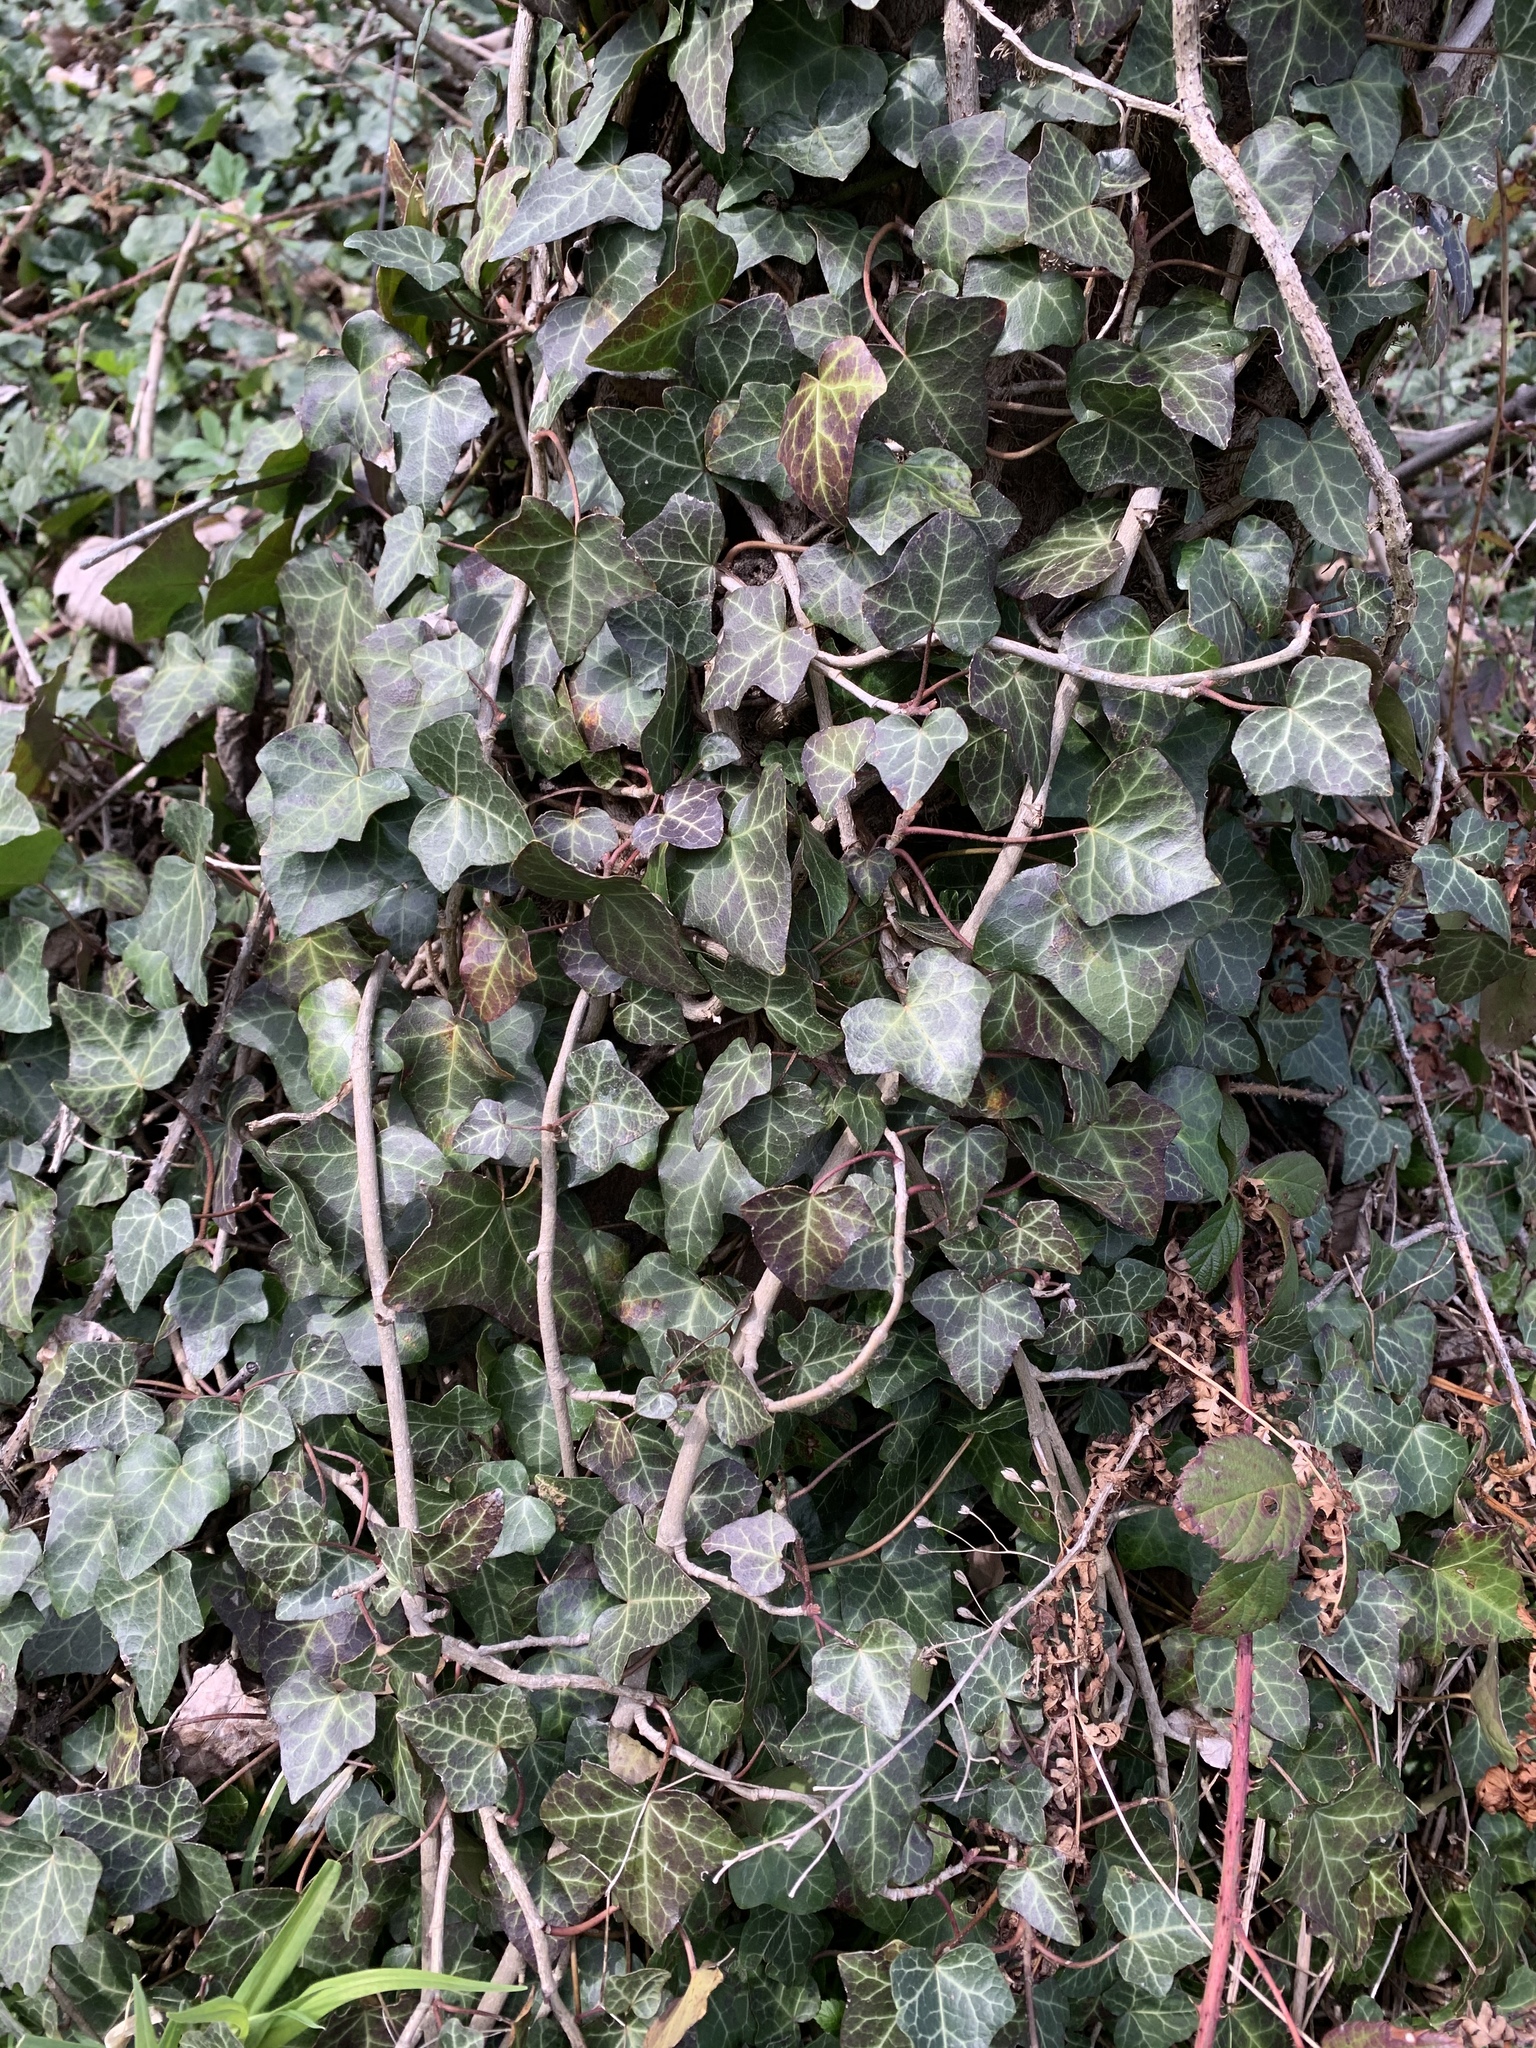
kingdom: Plantae
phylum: Tracheophyta
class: Magnoliopsida
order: Apiales
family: Araliaceae
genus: Hedera
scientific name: Hedera helix
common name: Ivy
